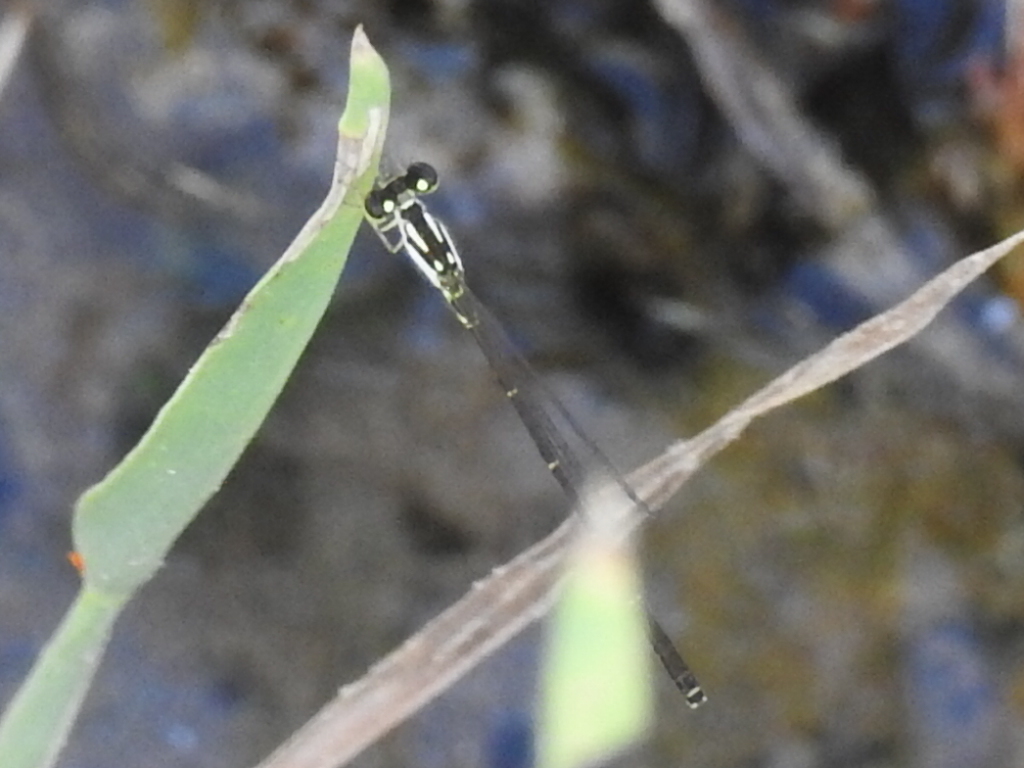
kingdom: Animalia
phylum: Arthropoda
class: Insecta
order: Odonata
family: Coenagrionidae
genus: Ischnura
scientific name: Ischnura posita
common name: Fragile forktail
